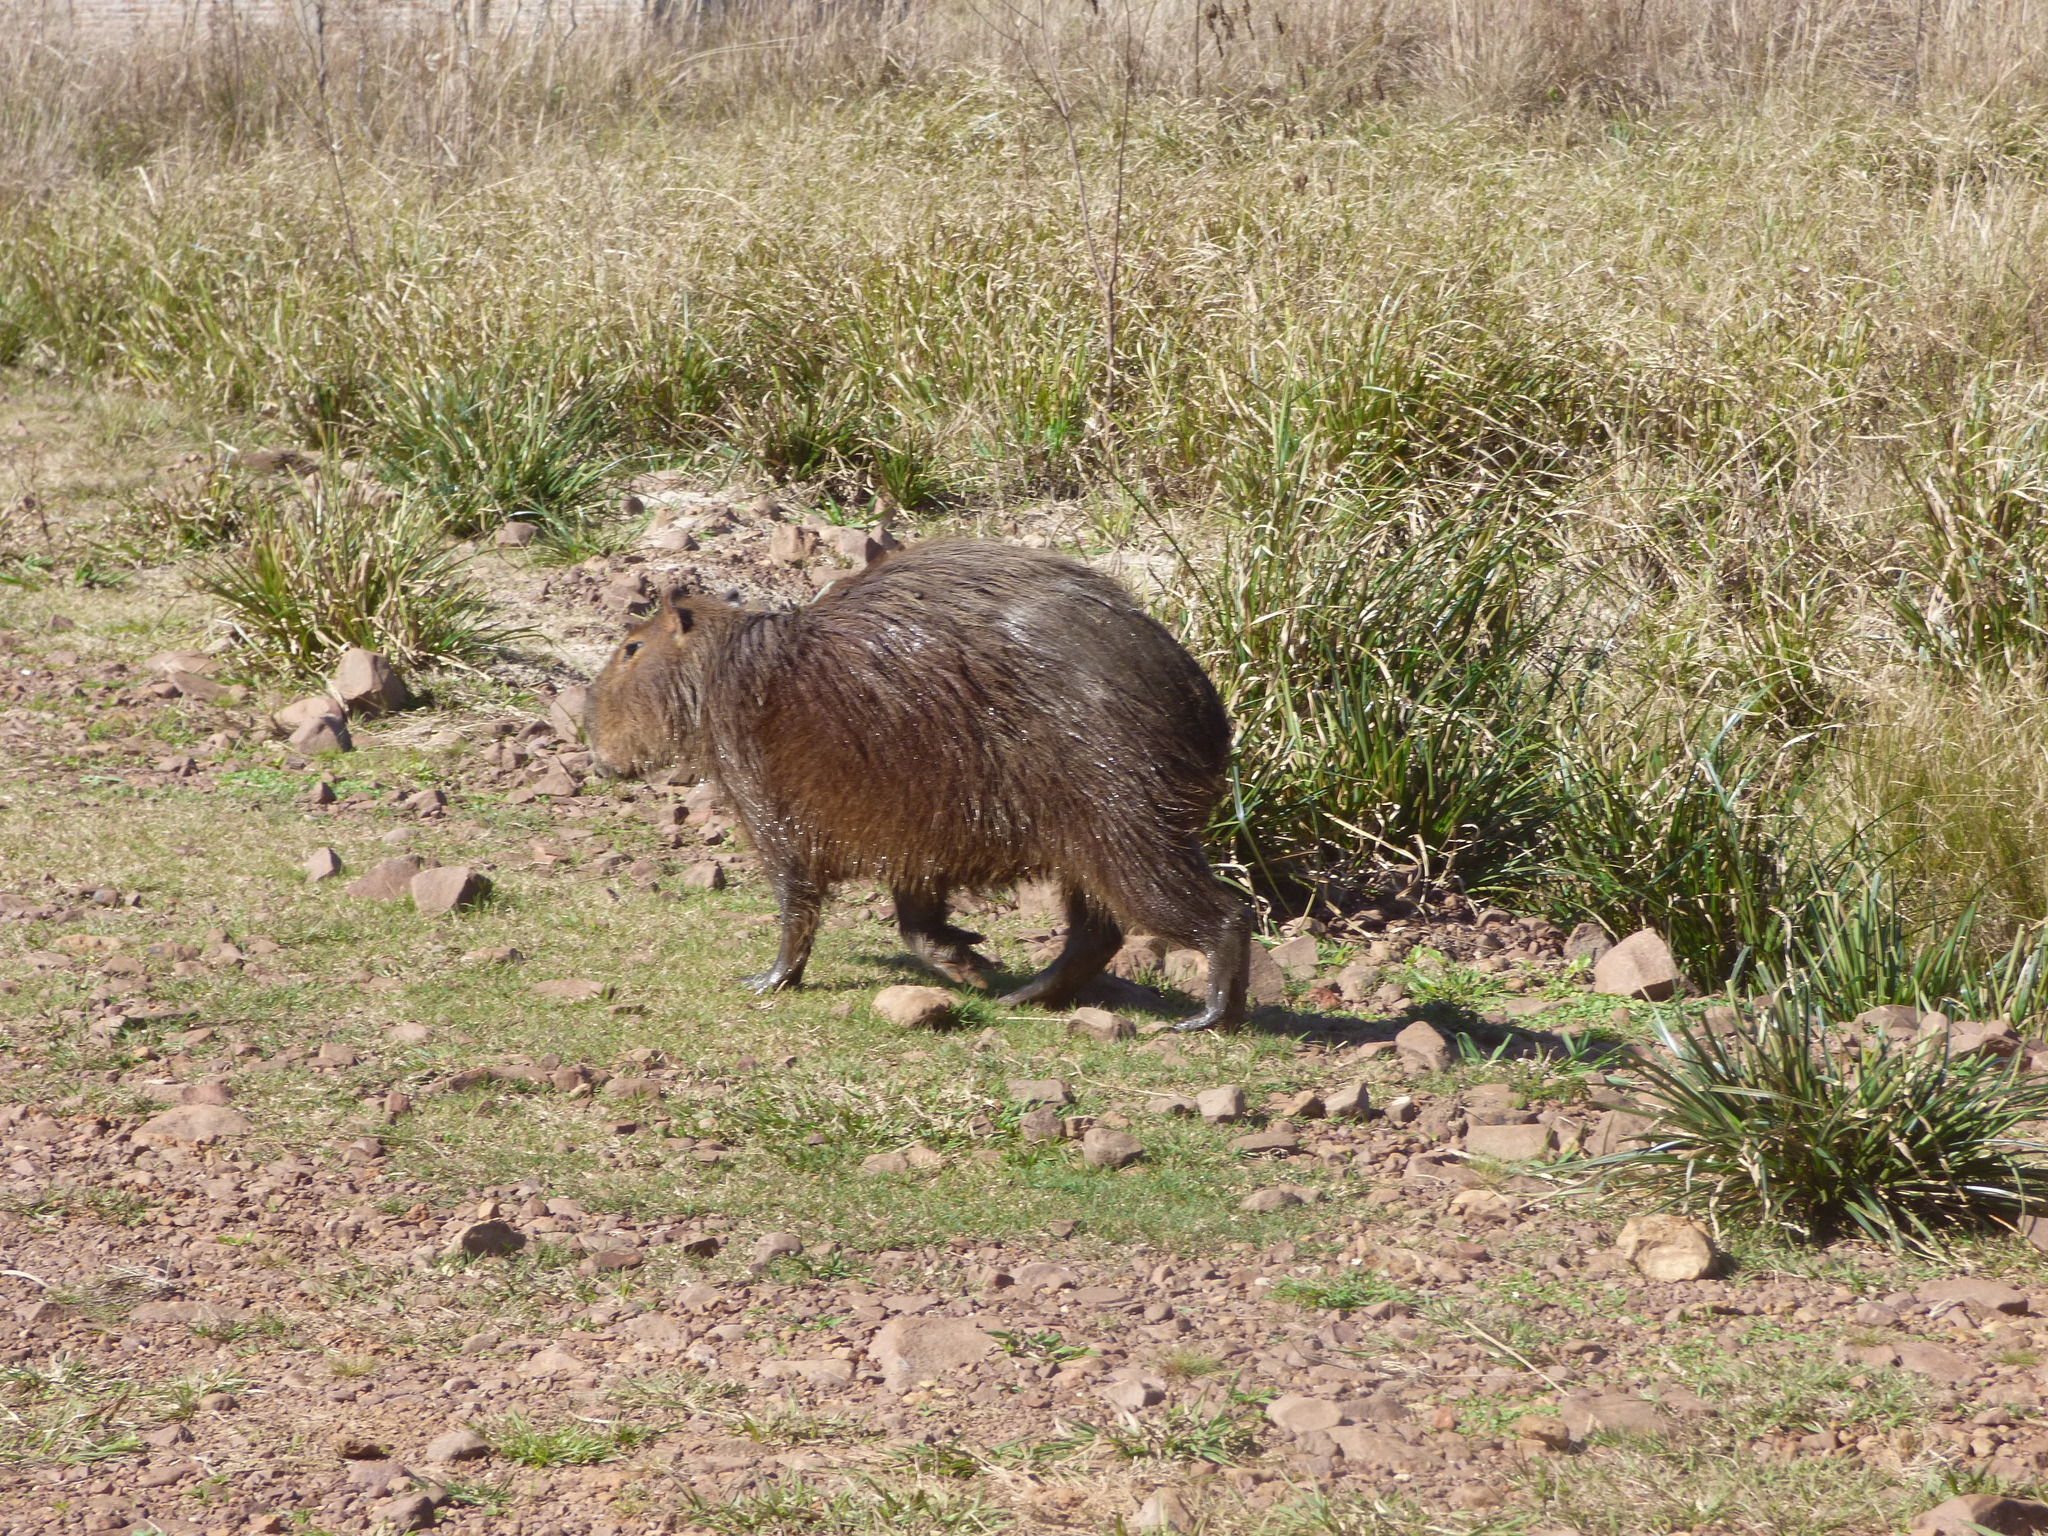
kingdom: Animalia
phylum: Chordata
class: Mammalia
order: Rodentia
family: Caviidae
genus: Hydrochoerus
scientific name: Hydrochoerus hydrochaeris
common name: Capybara
